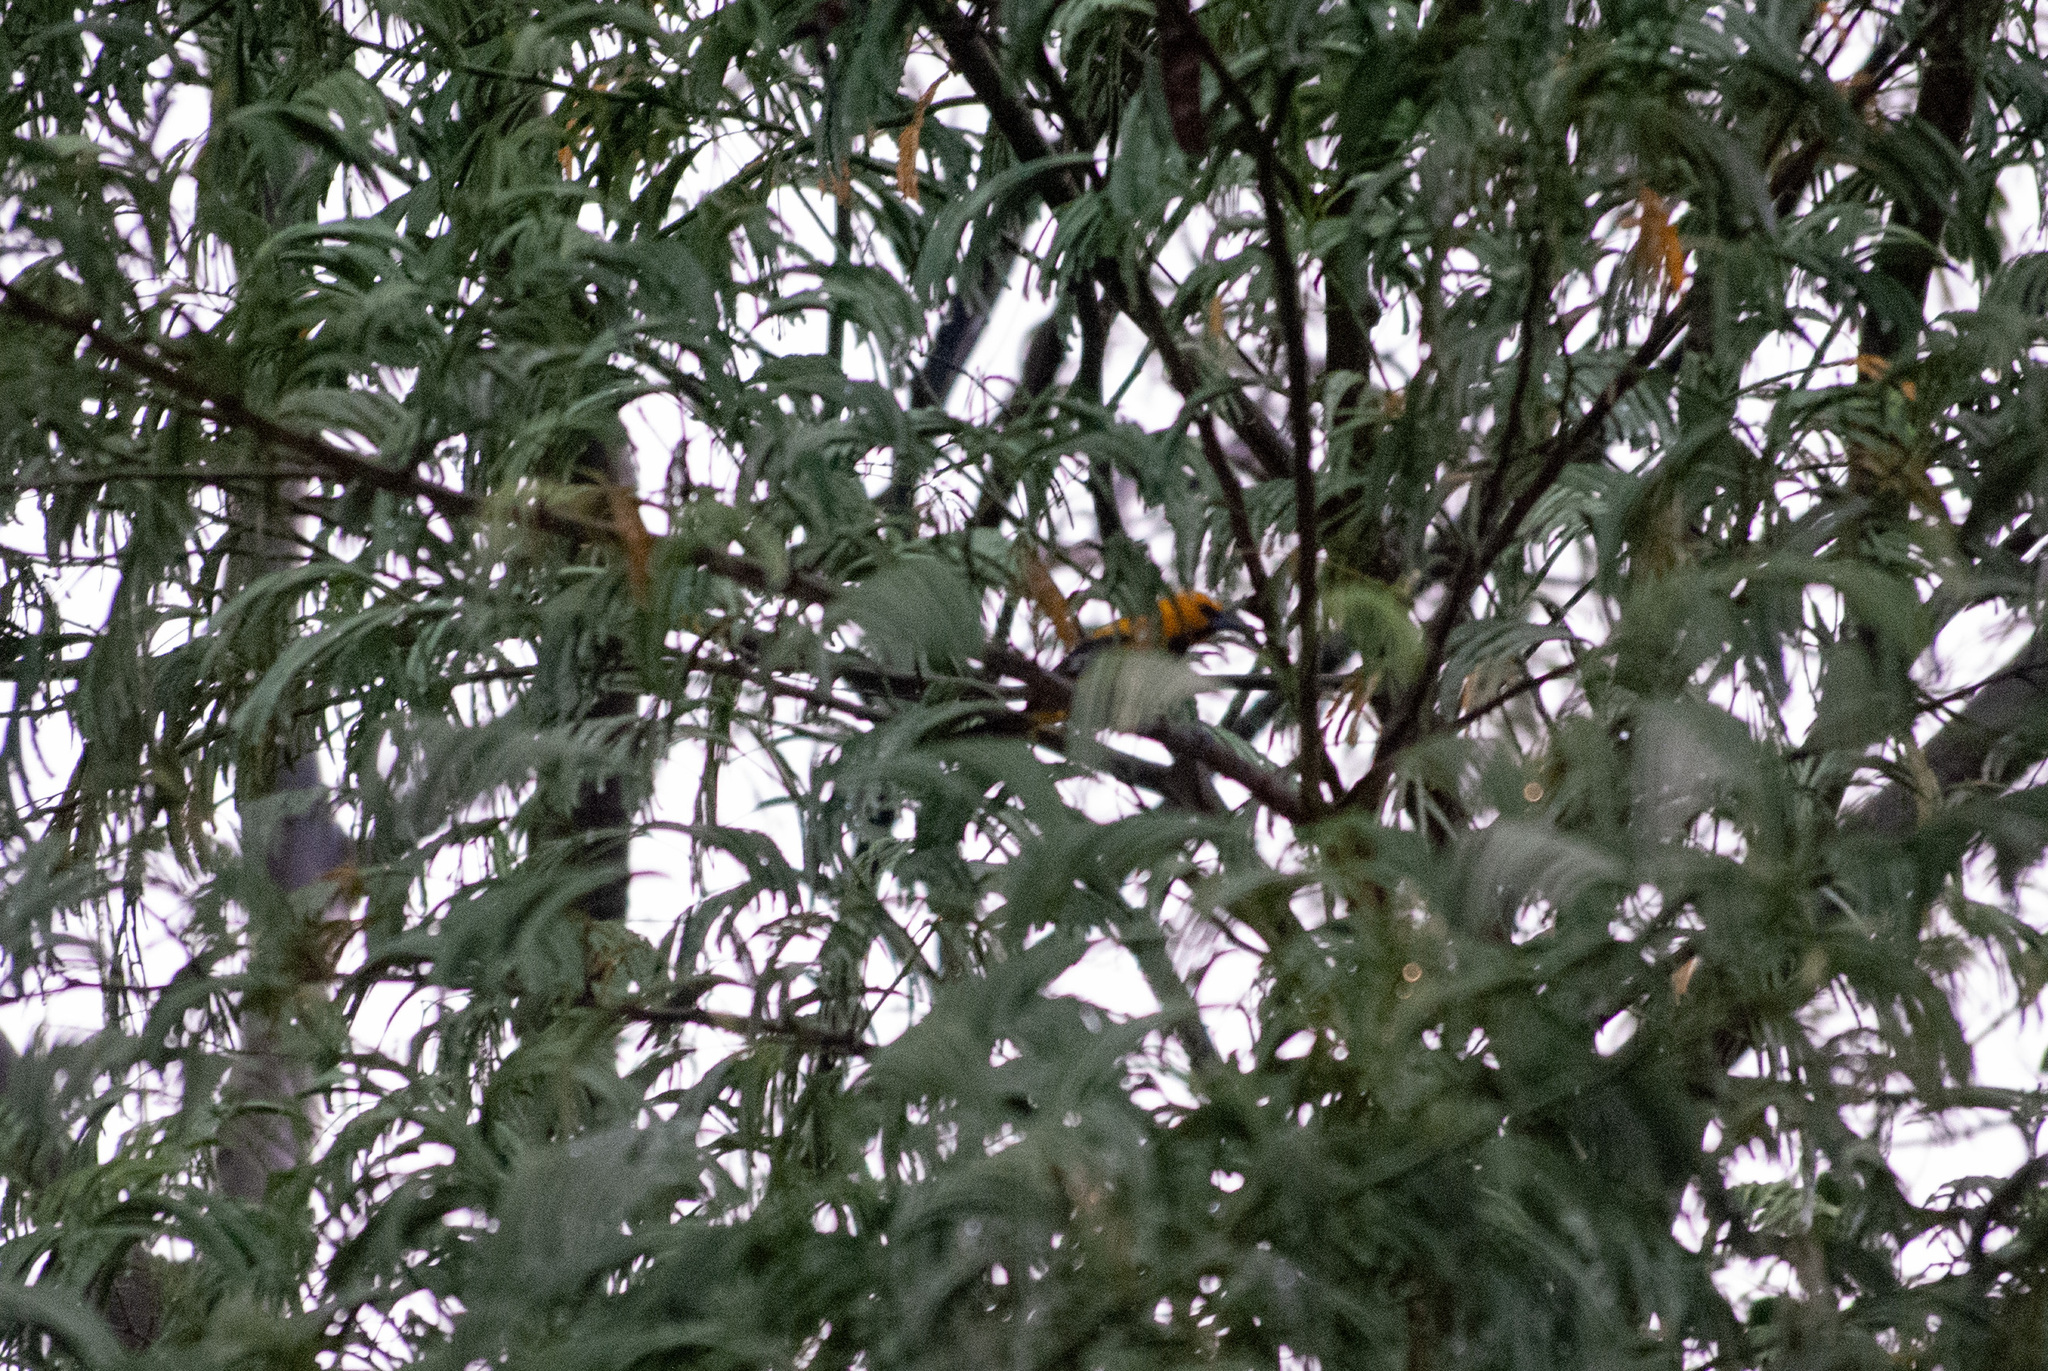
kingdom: Animalia
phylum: Chordata
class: Aves
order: Passeriformes
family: Icteridae
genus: Icterus
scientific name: Icterus nigrogularis
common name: Yellow oriole
